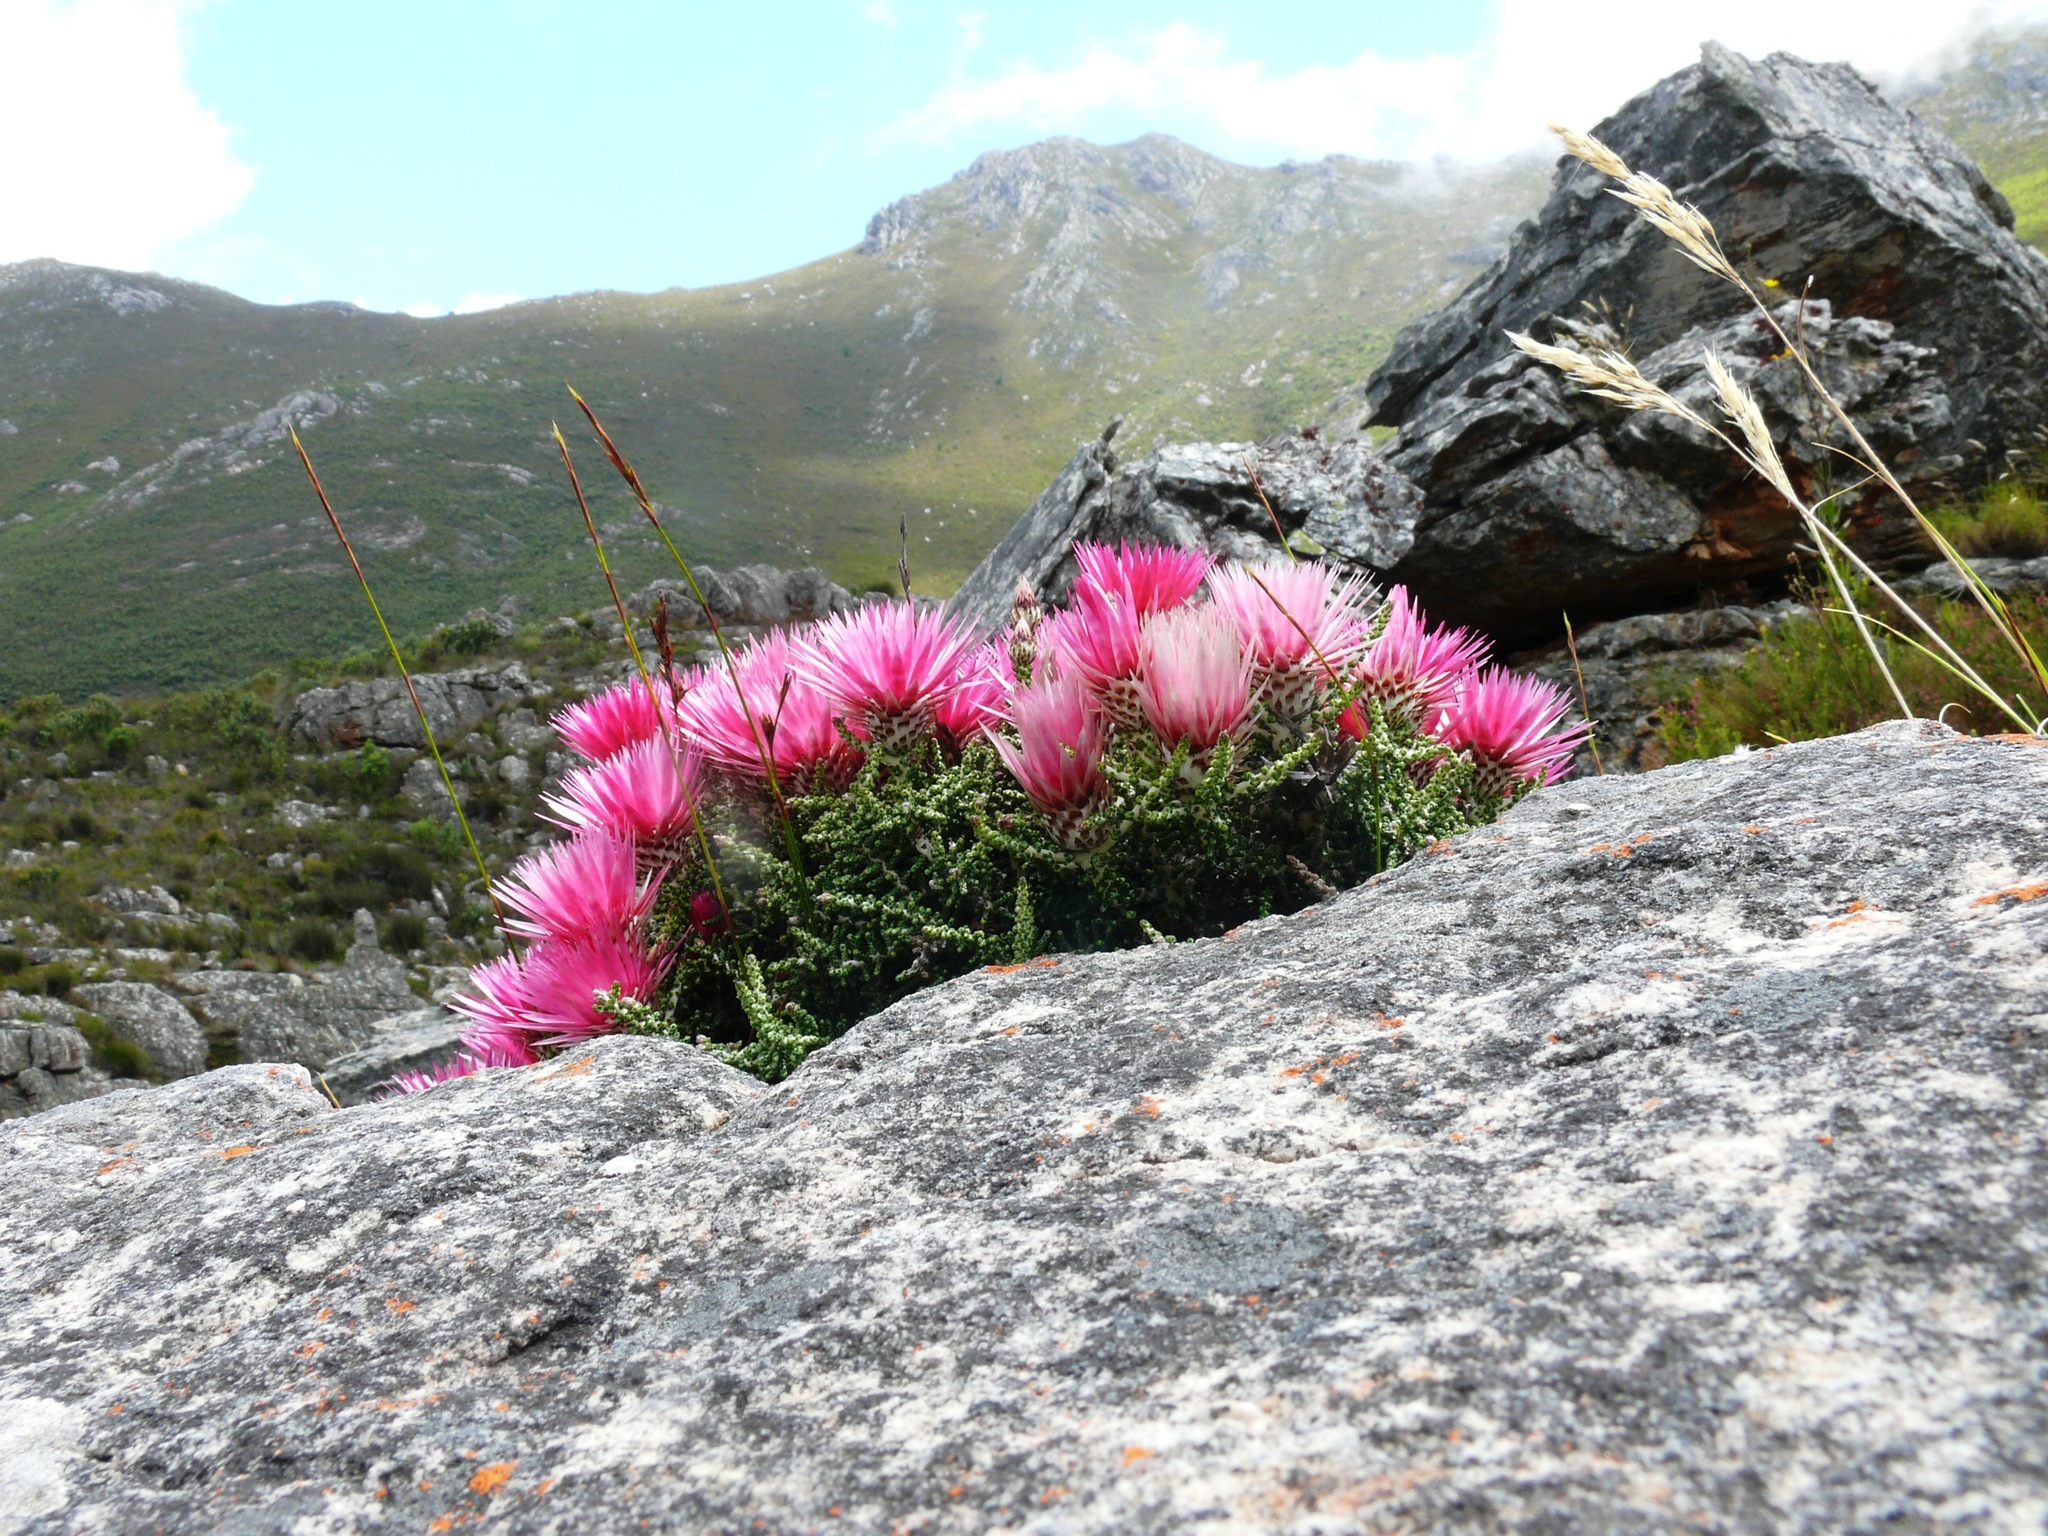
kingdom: Plantae
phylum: Tracheophyta
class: Magnoliopsida
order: Asterales
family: Asteraceae
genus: Phaenocoma
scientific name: Phaenocoma prolifera
